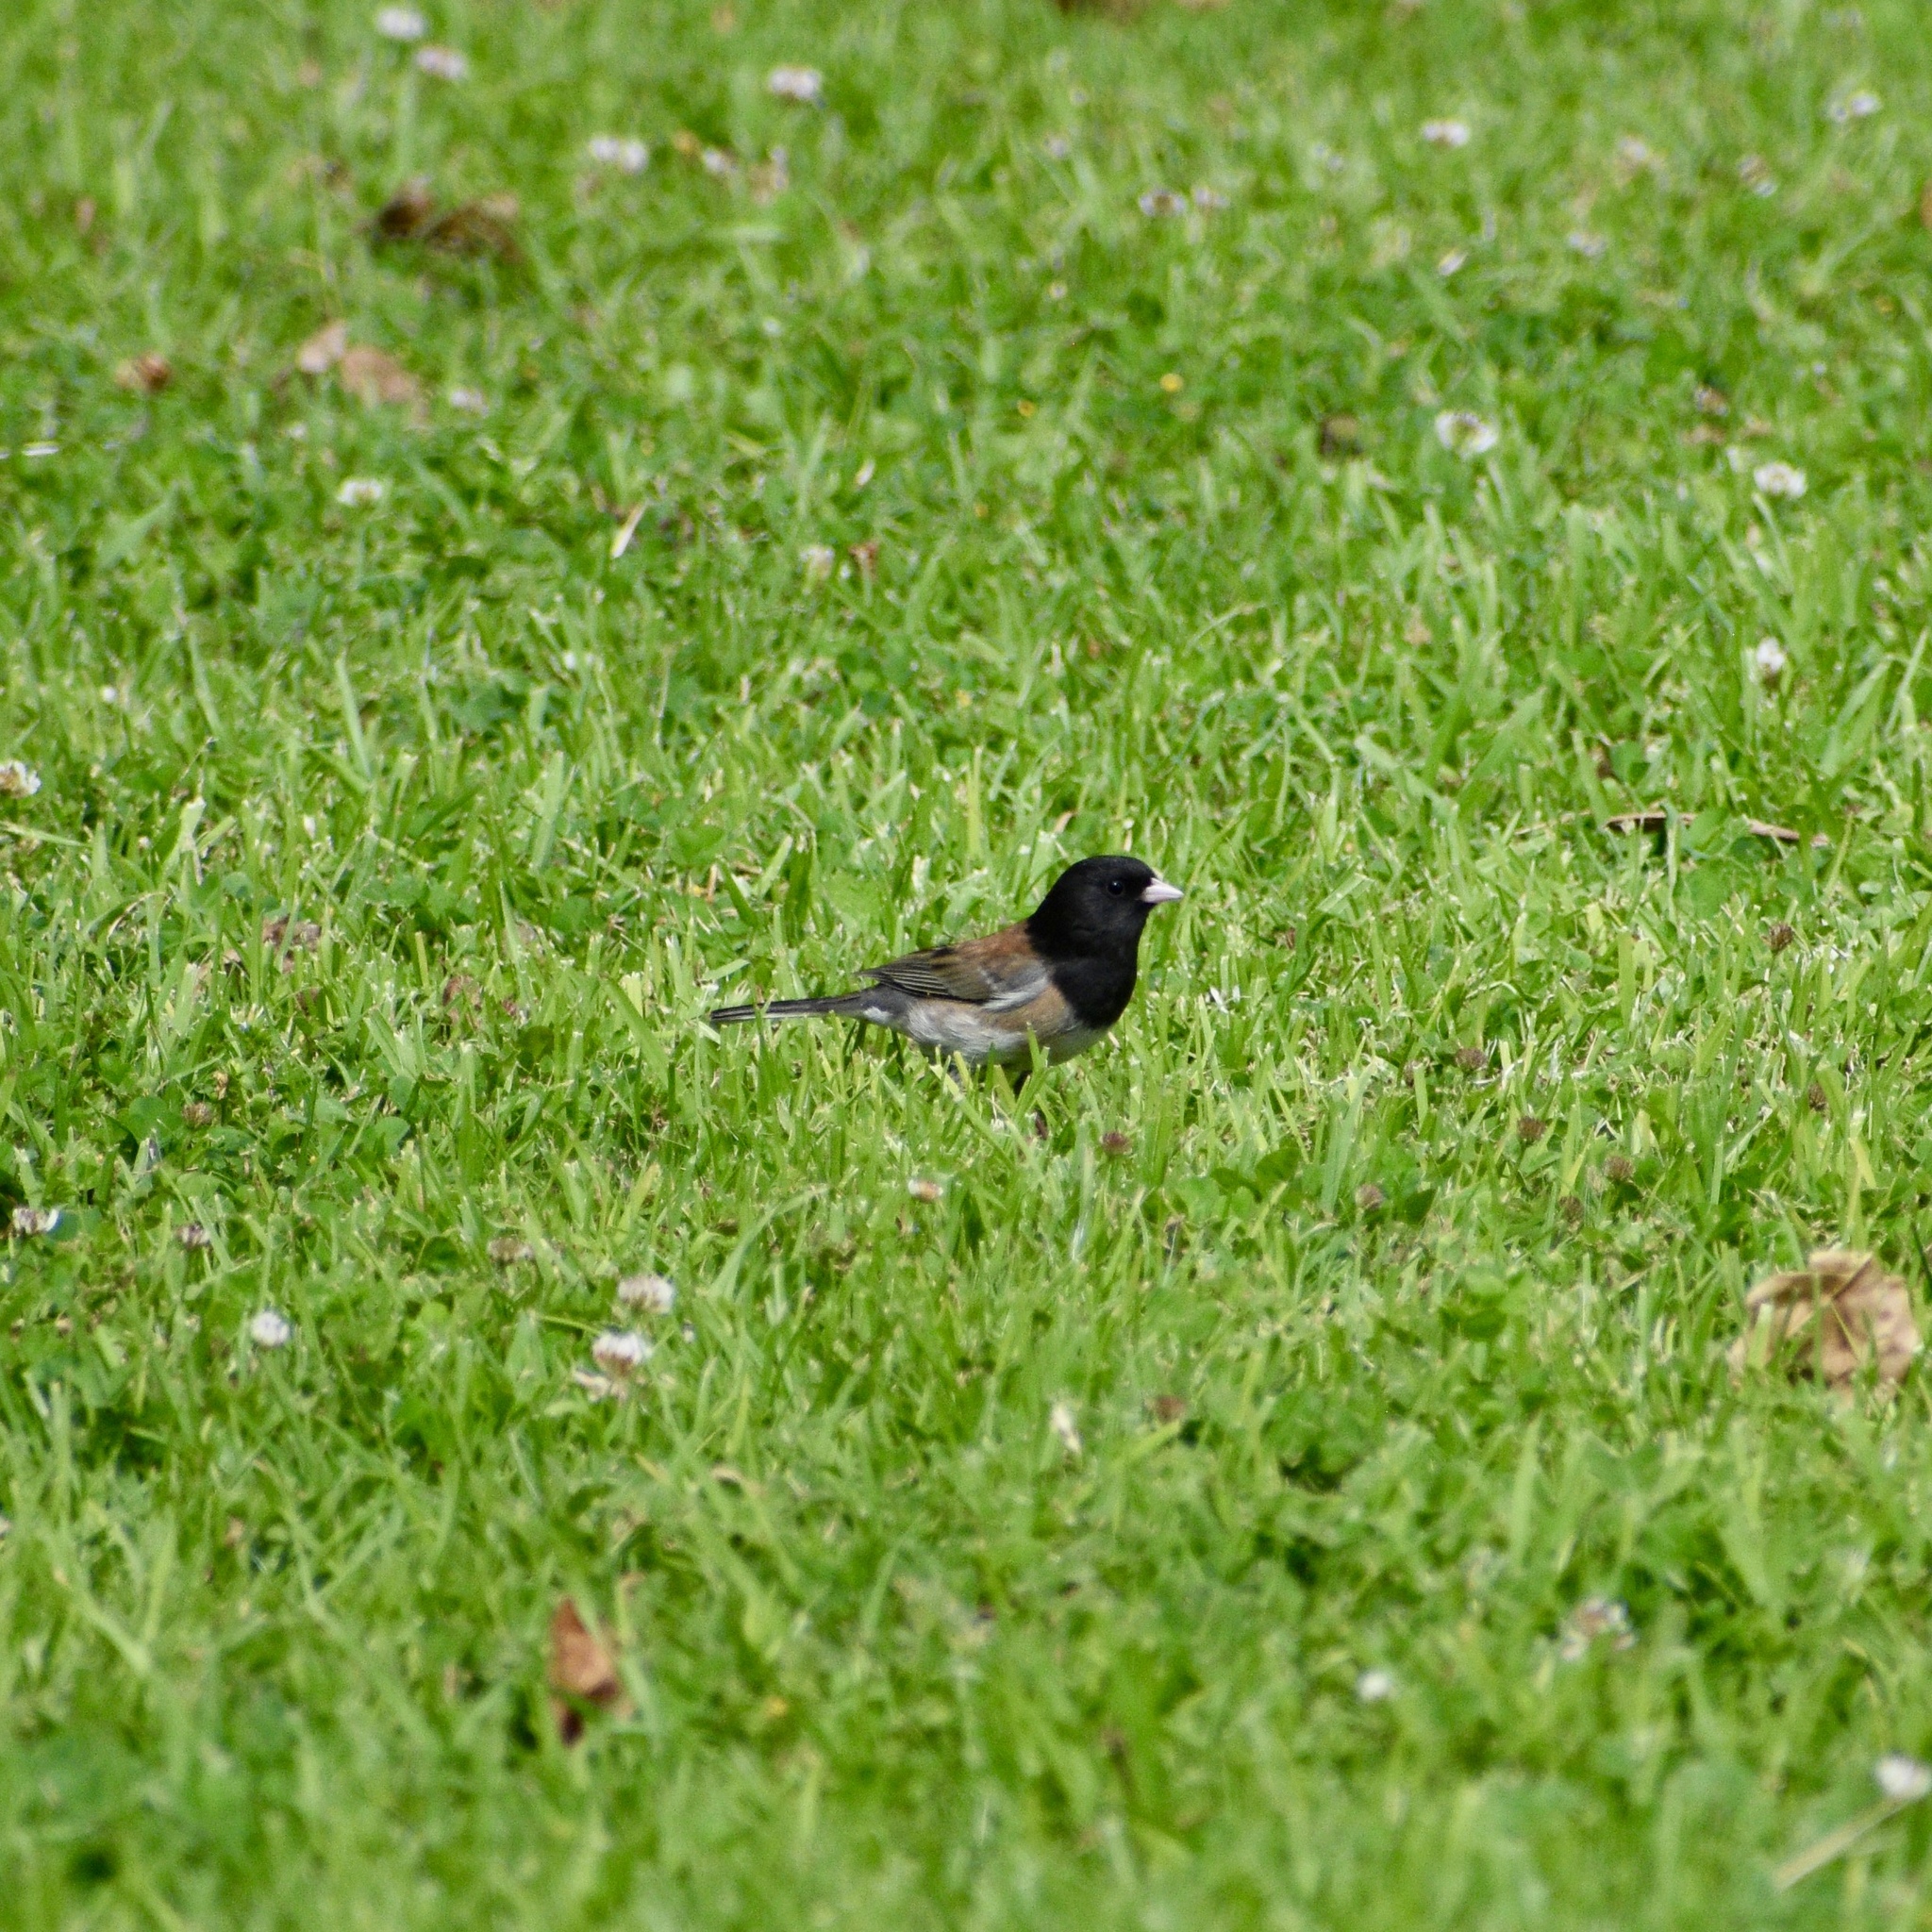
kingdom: Animalia
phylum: Chordata
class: Aves
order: Passeriformes
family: Passerellidae
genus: Junco
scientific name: Junco hyemalis
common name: Dark-eyed junco
